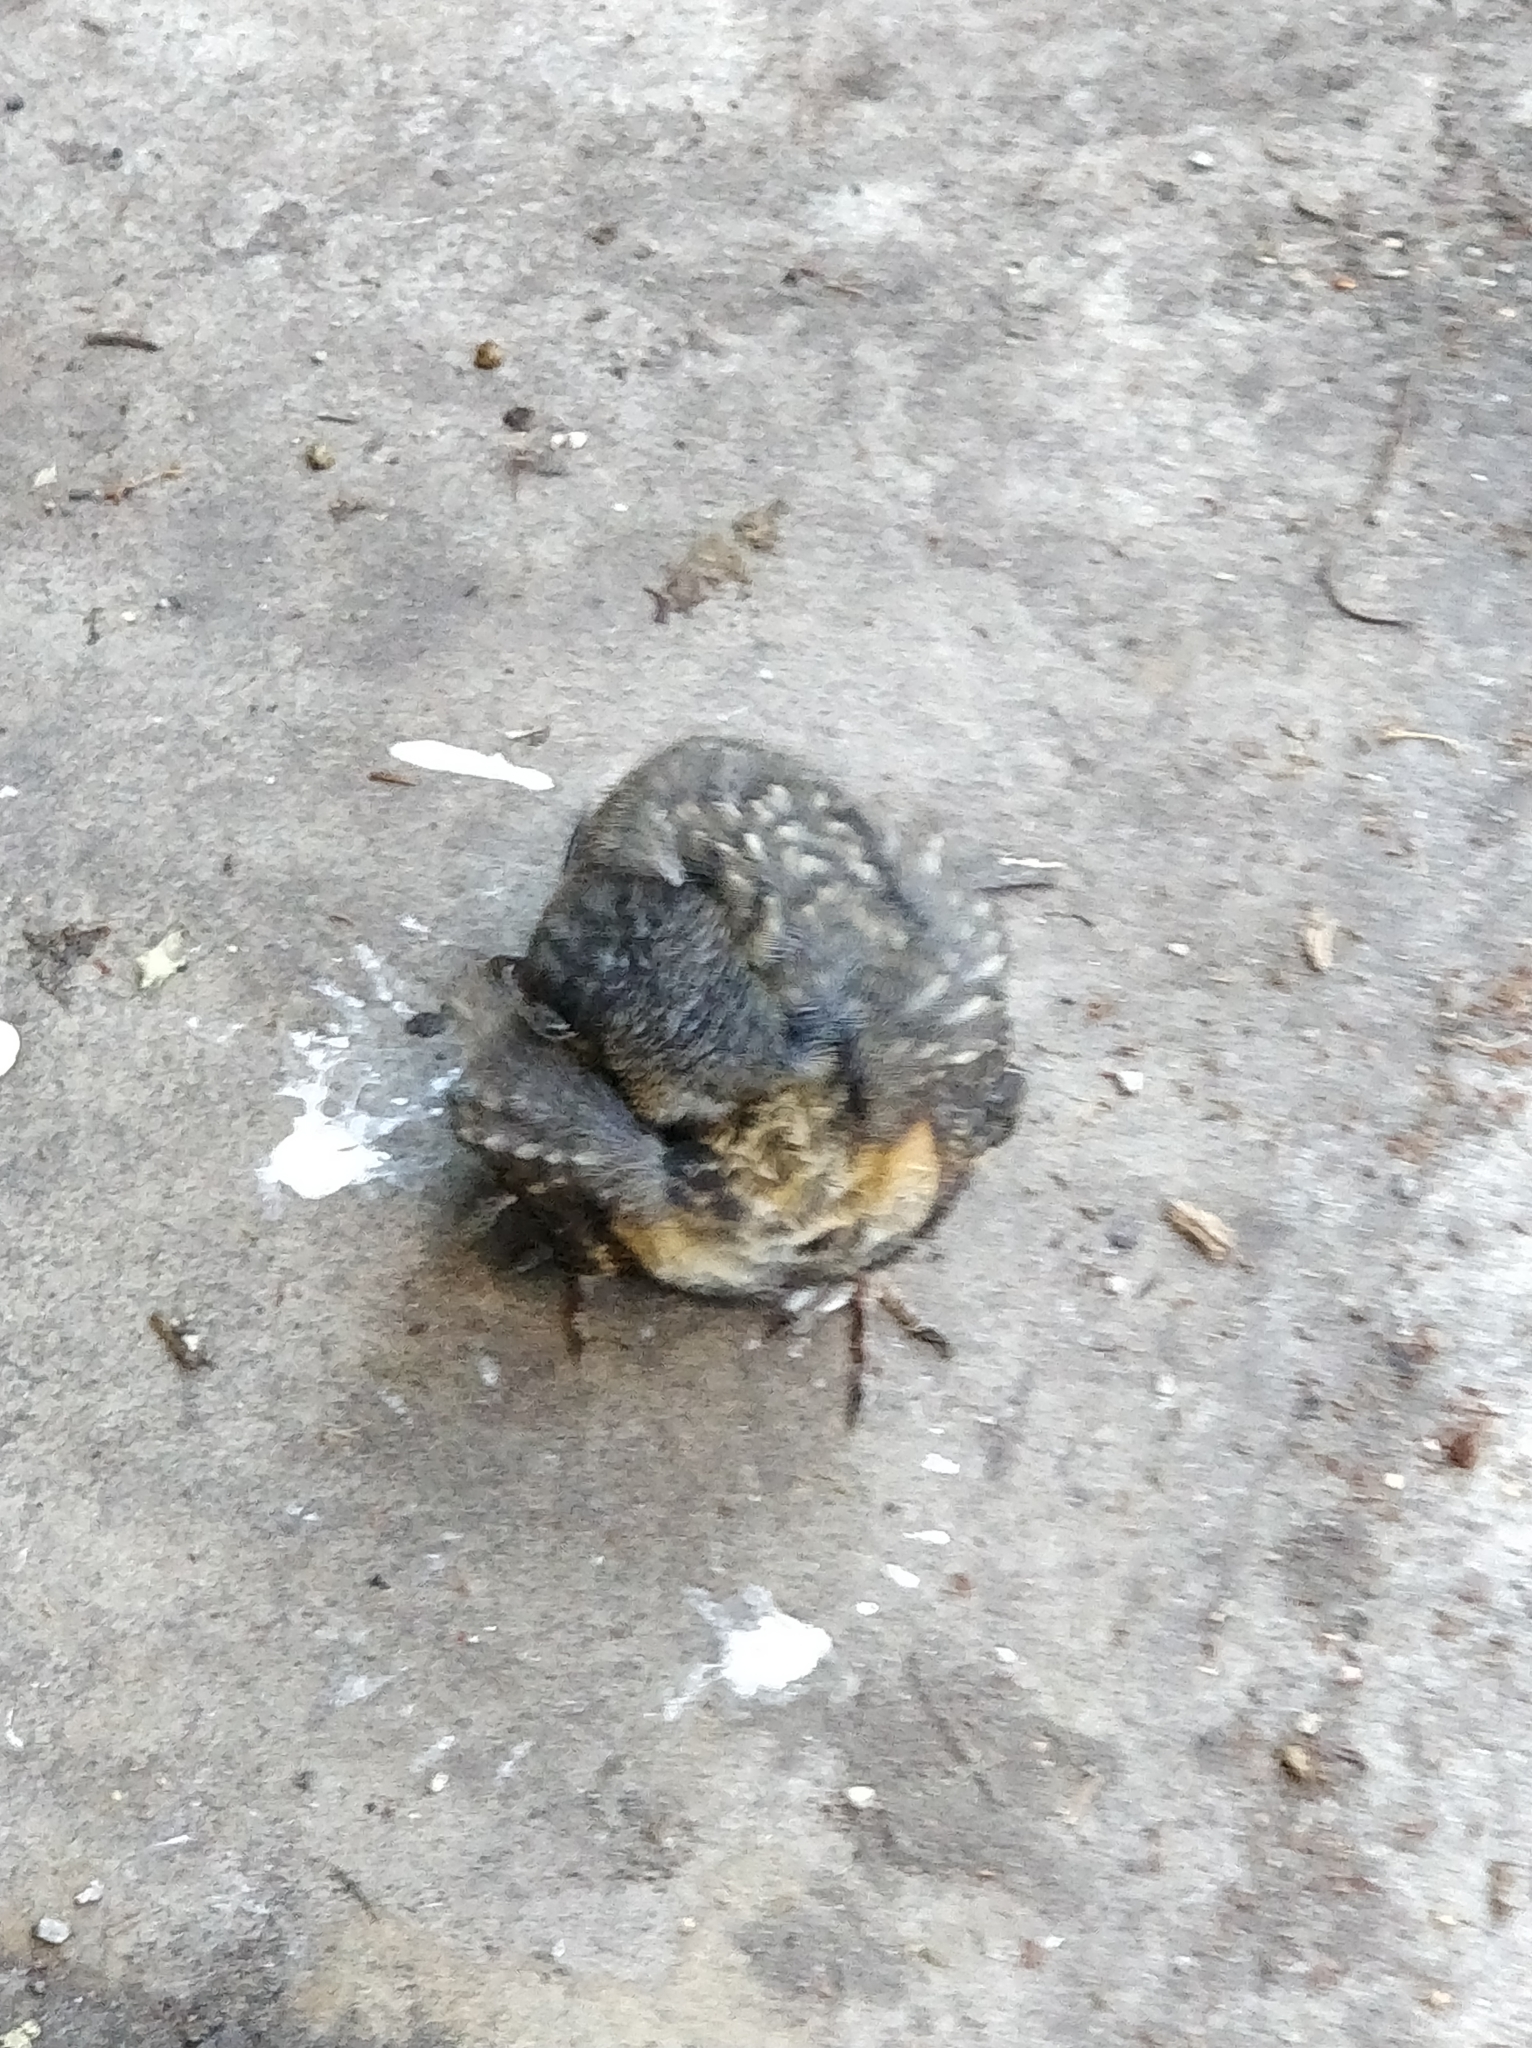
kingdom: Animalia
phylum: Chordata
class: Aves
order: Passeriformes
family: Turdidae
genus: Turdus
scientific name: Turdus migratorius
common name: American robin
